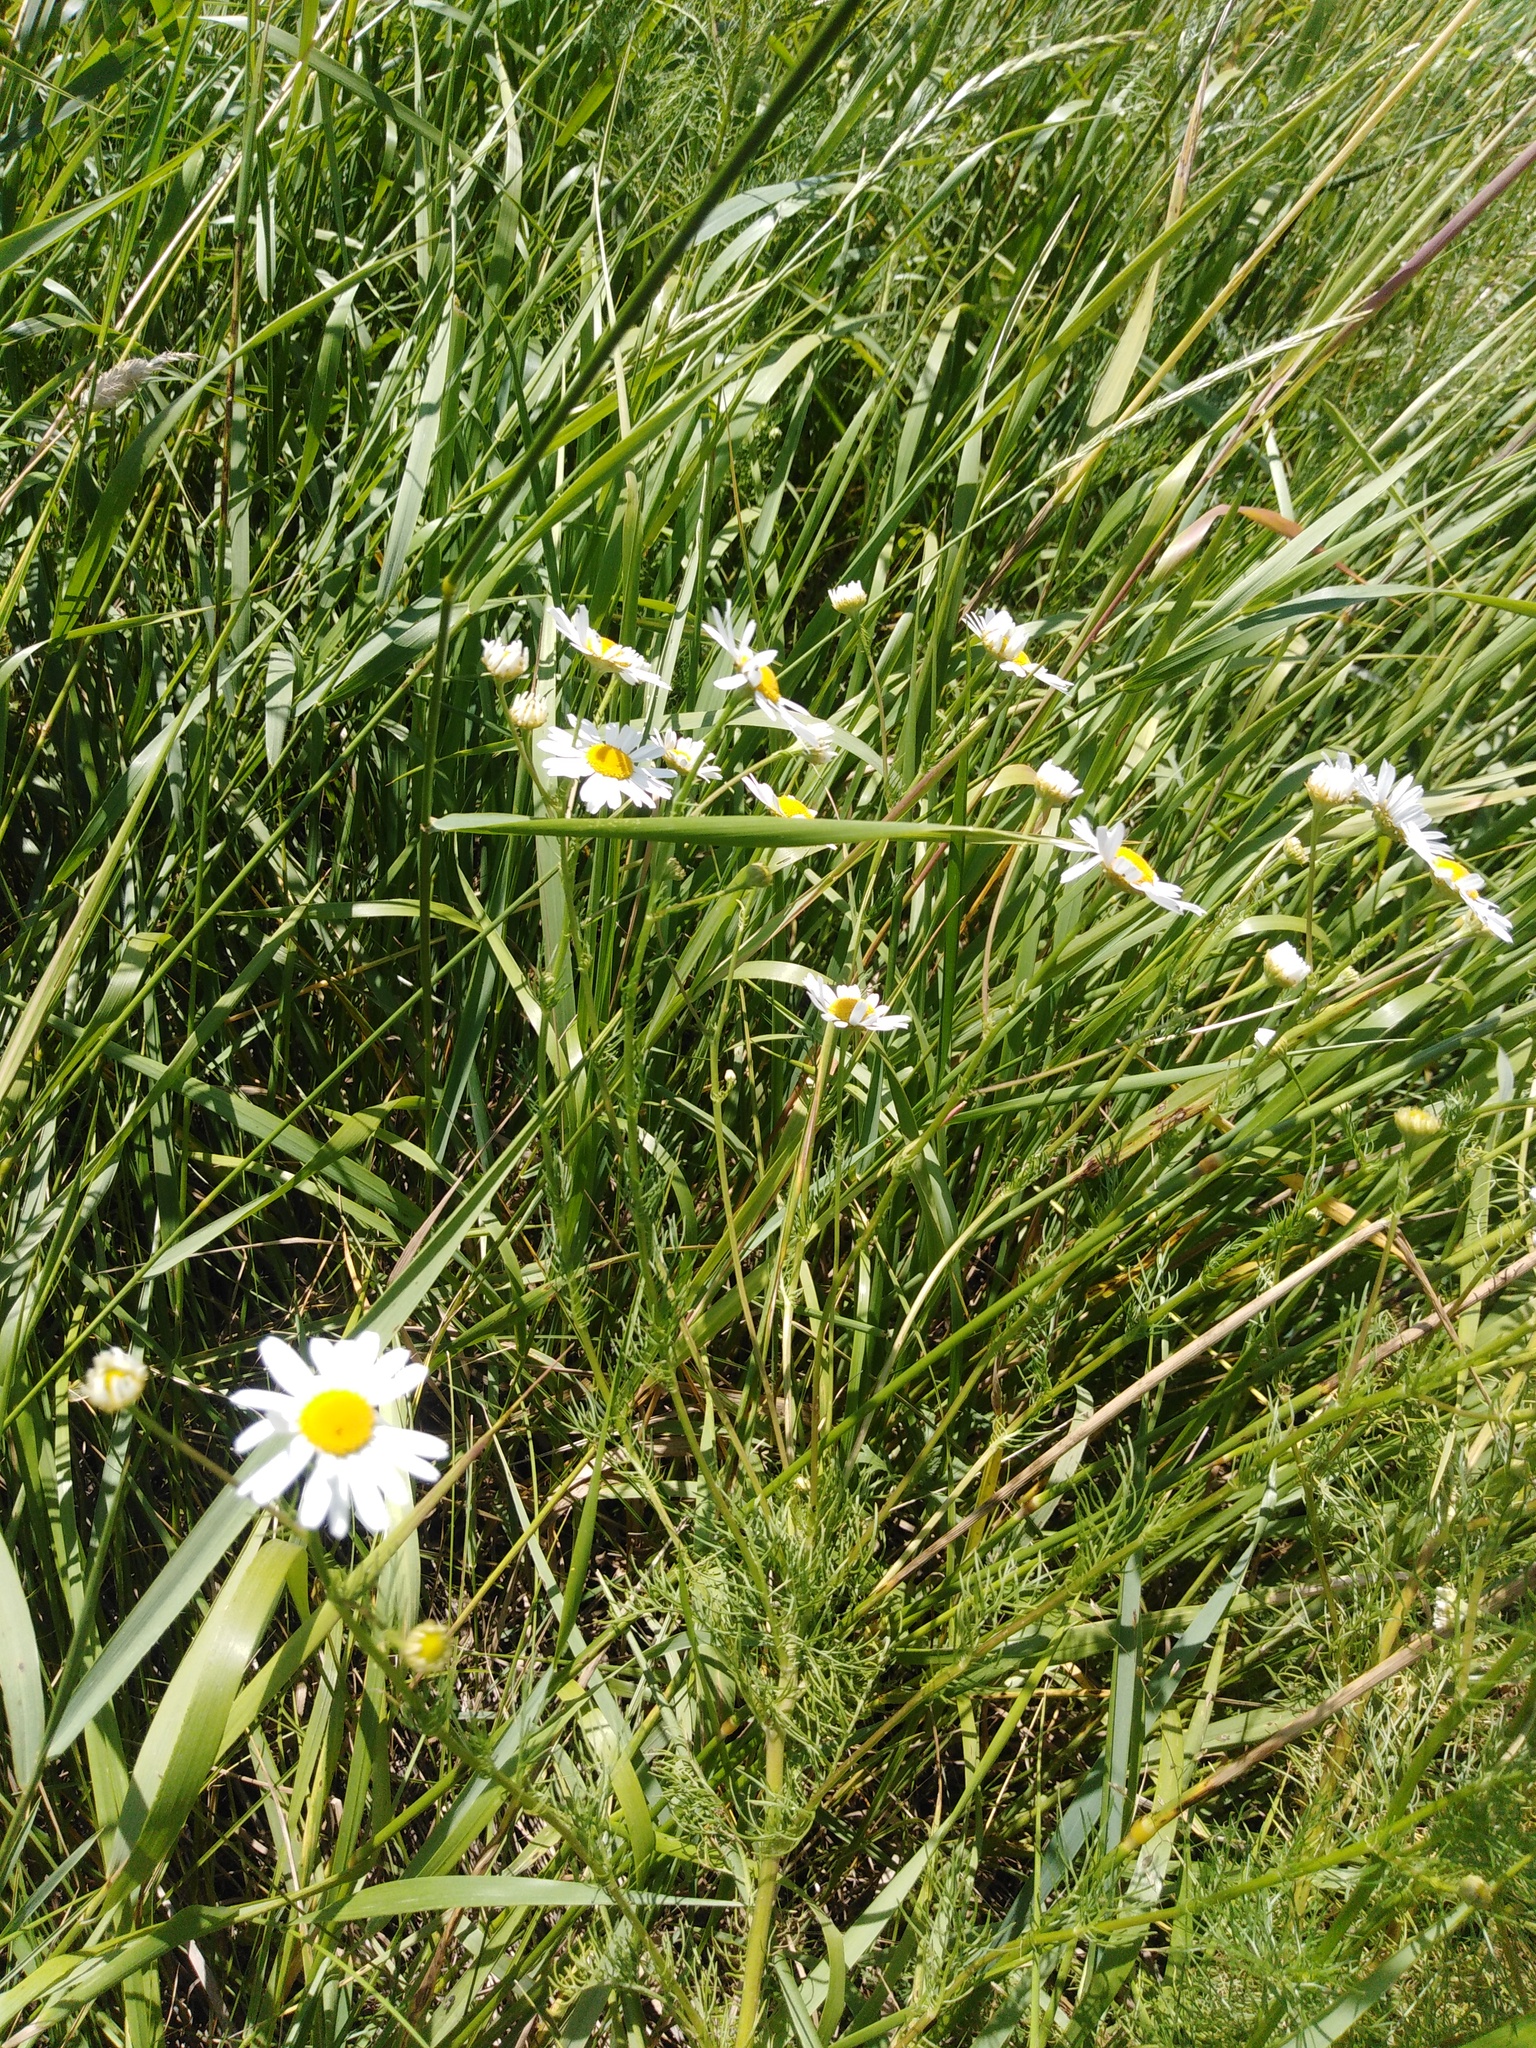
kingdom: Plantae
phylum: Tracheophyta
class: Magnoliopsida
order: Asterales
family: Asteraceae
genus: Tripleurospermum
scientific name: Tripleurospermum inodorum
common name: Scentless mayweed
